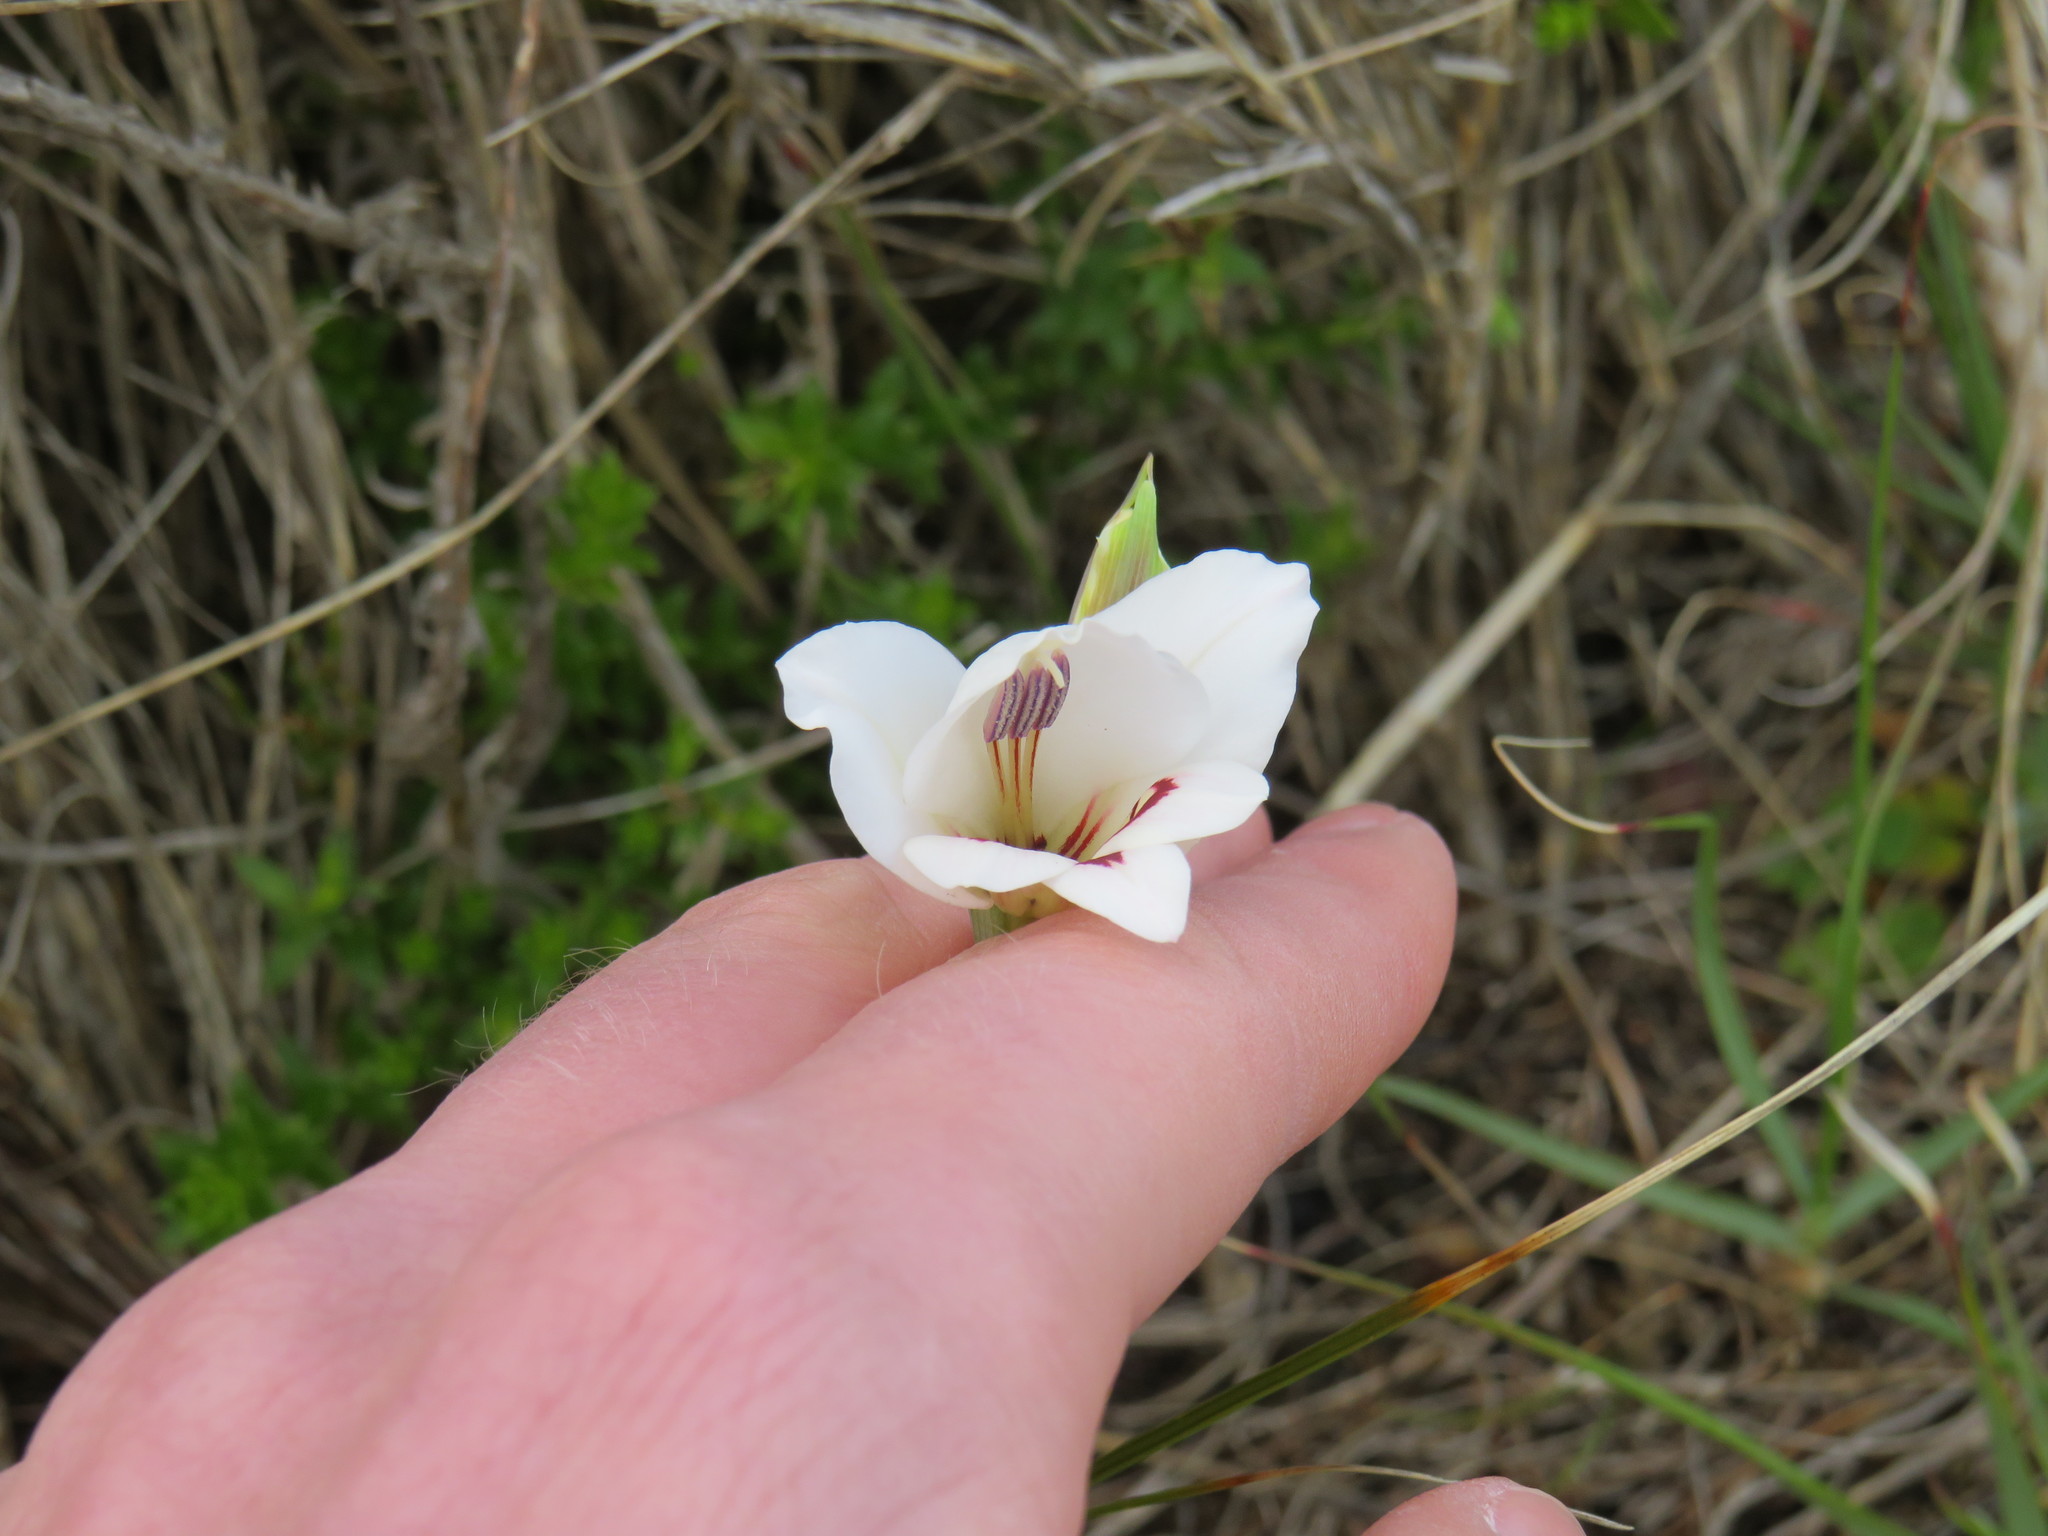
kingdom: Plantae
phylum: Tracheophyta
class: Liliopsida
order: Asparagales
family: Iridaceae
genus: Gladiolus
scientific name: Gladiolus debilis
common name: Painted-lady
